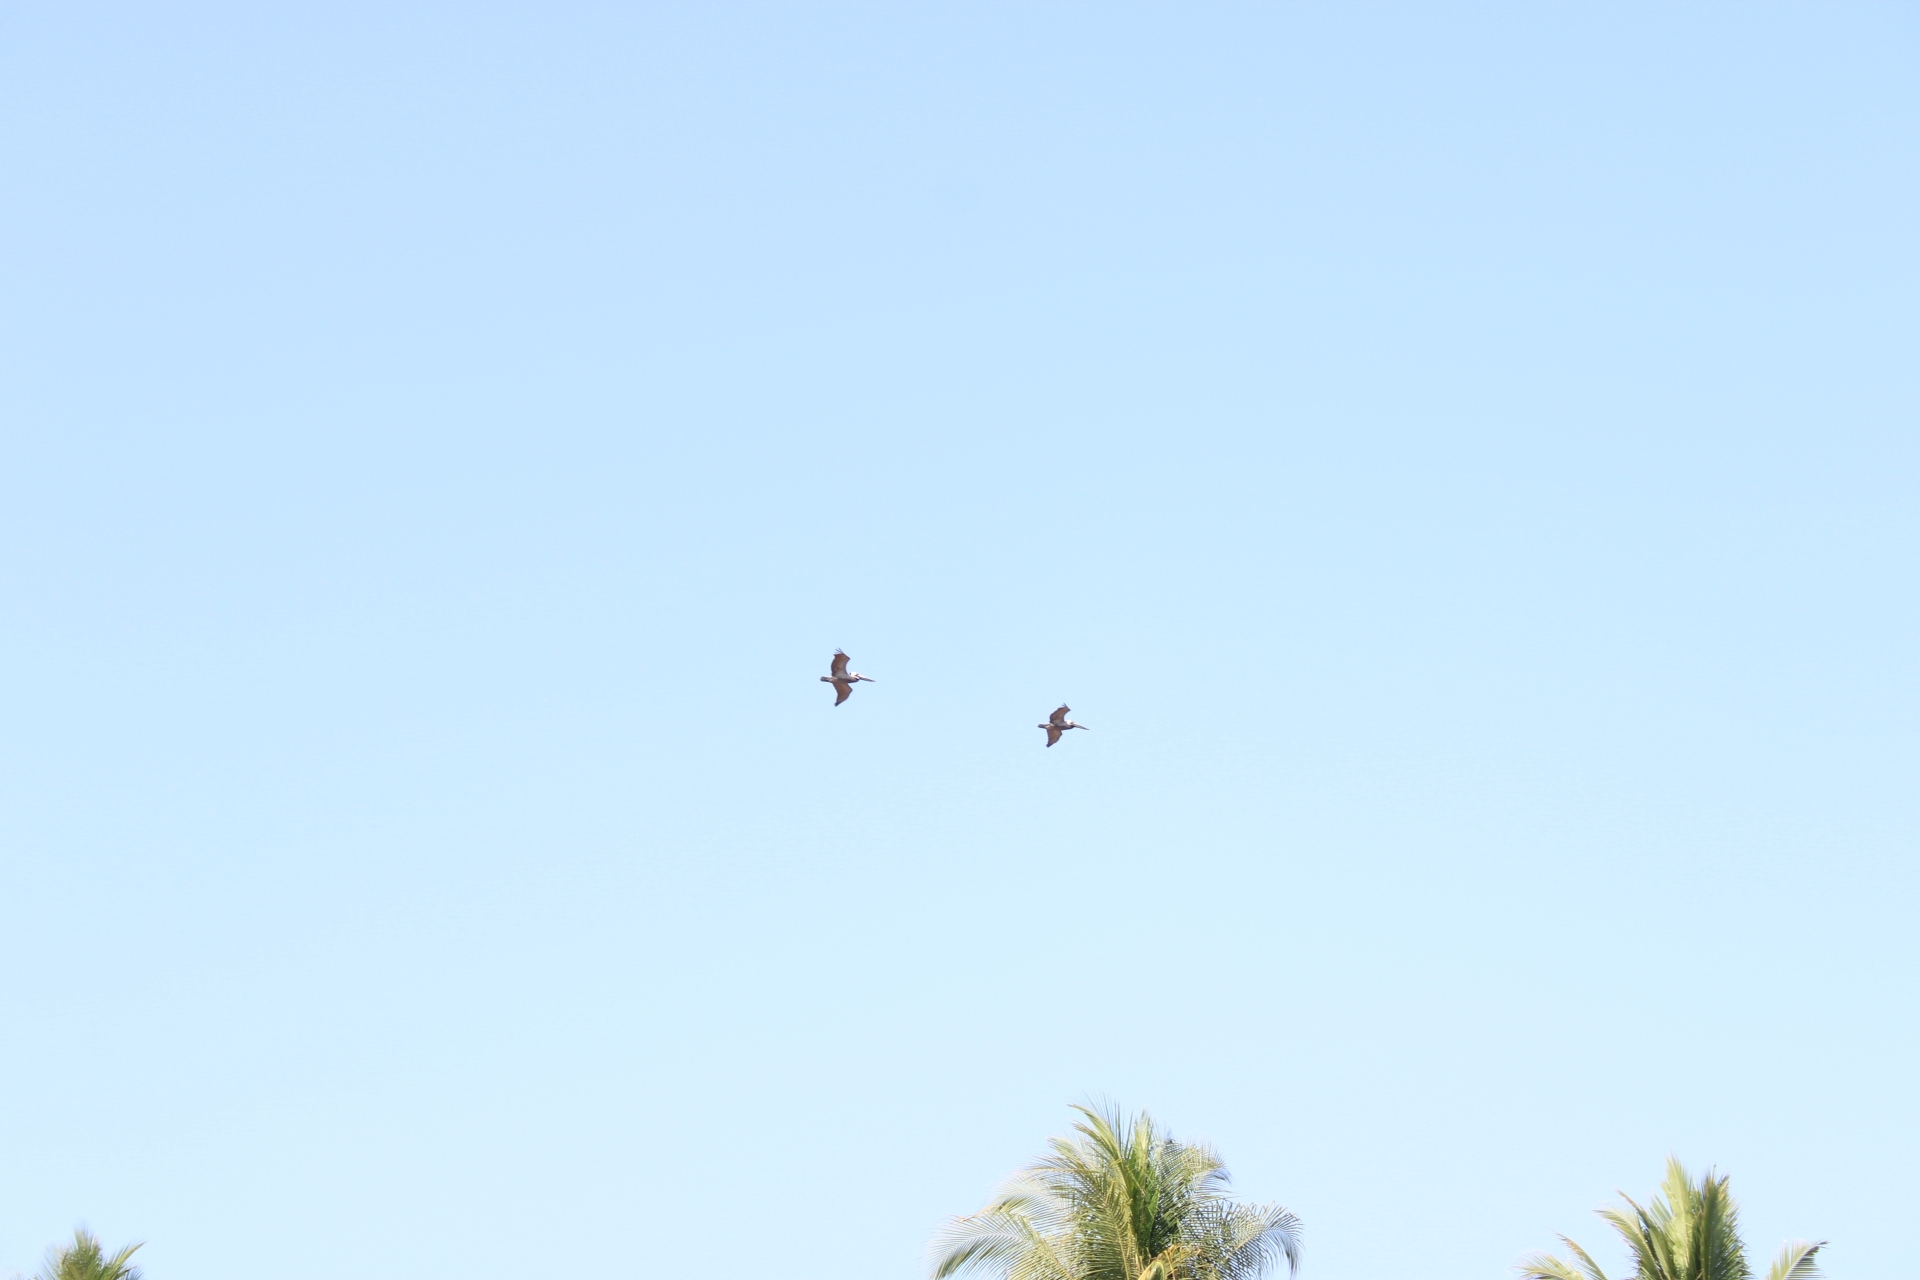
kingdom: Animalia
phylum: Chordata
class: Aves
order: Pelecaniformes
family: Pelecanidae
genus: Pelecanus
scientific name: Pelecanus occidentalis
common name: Brown pelican
